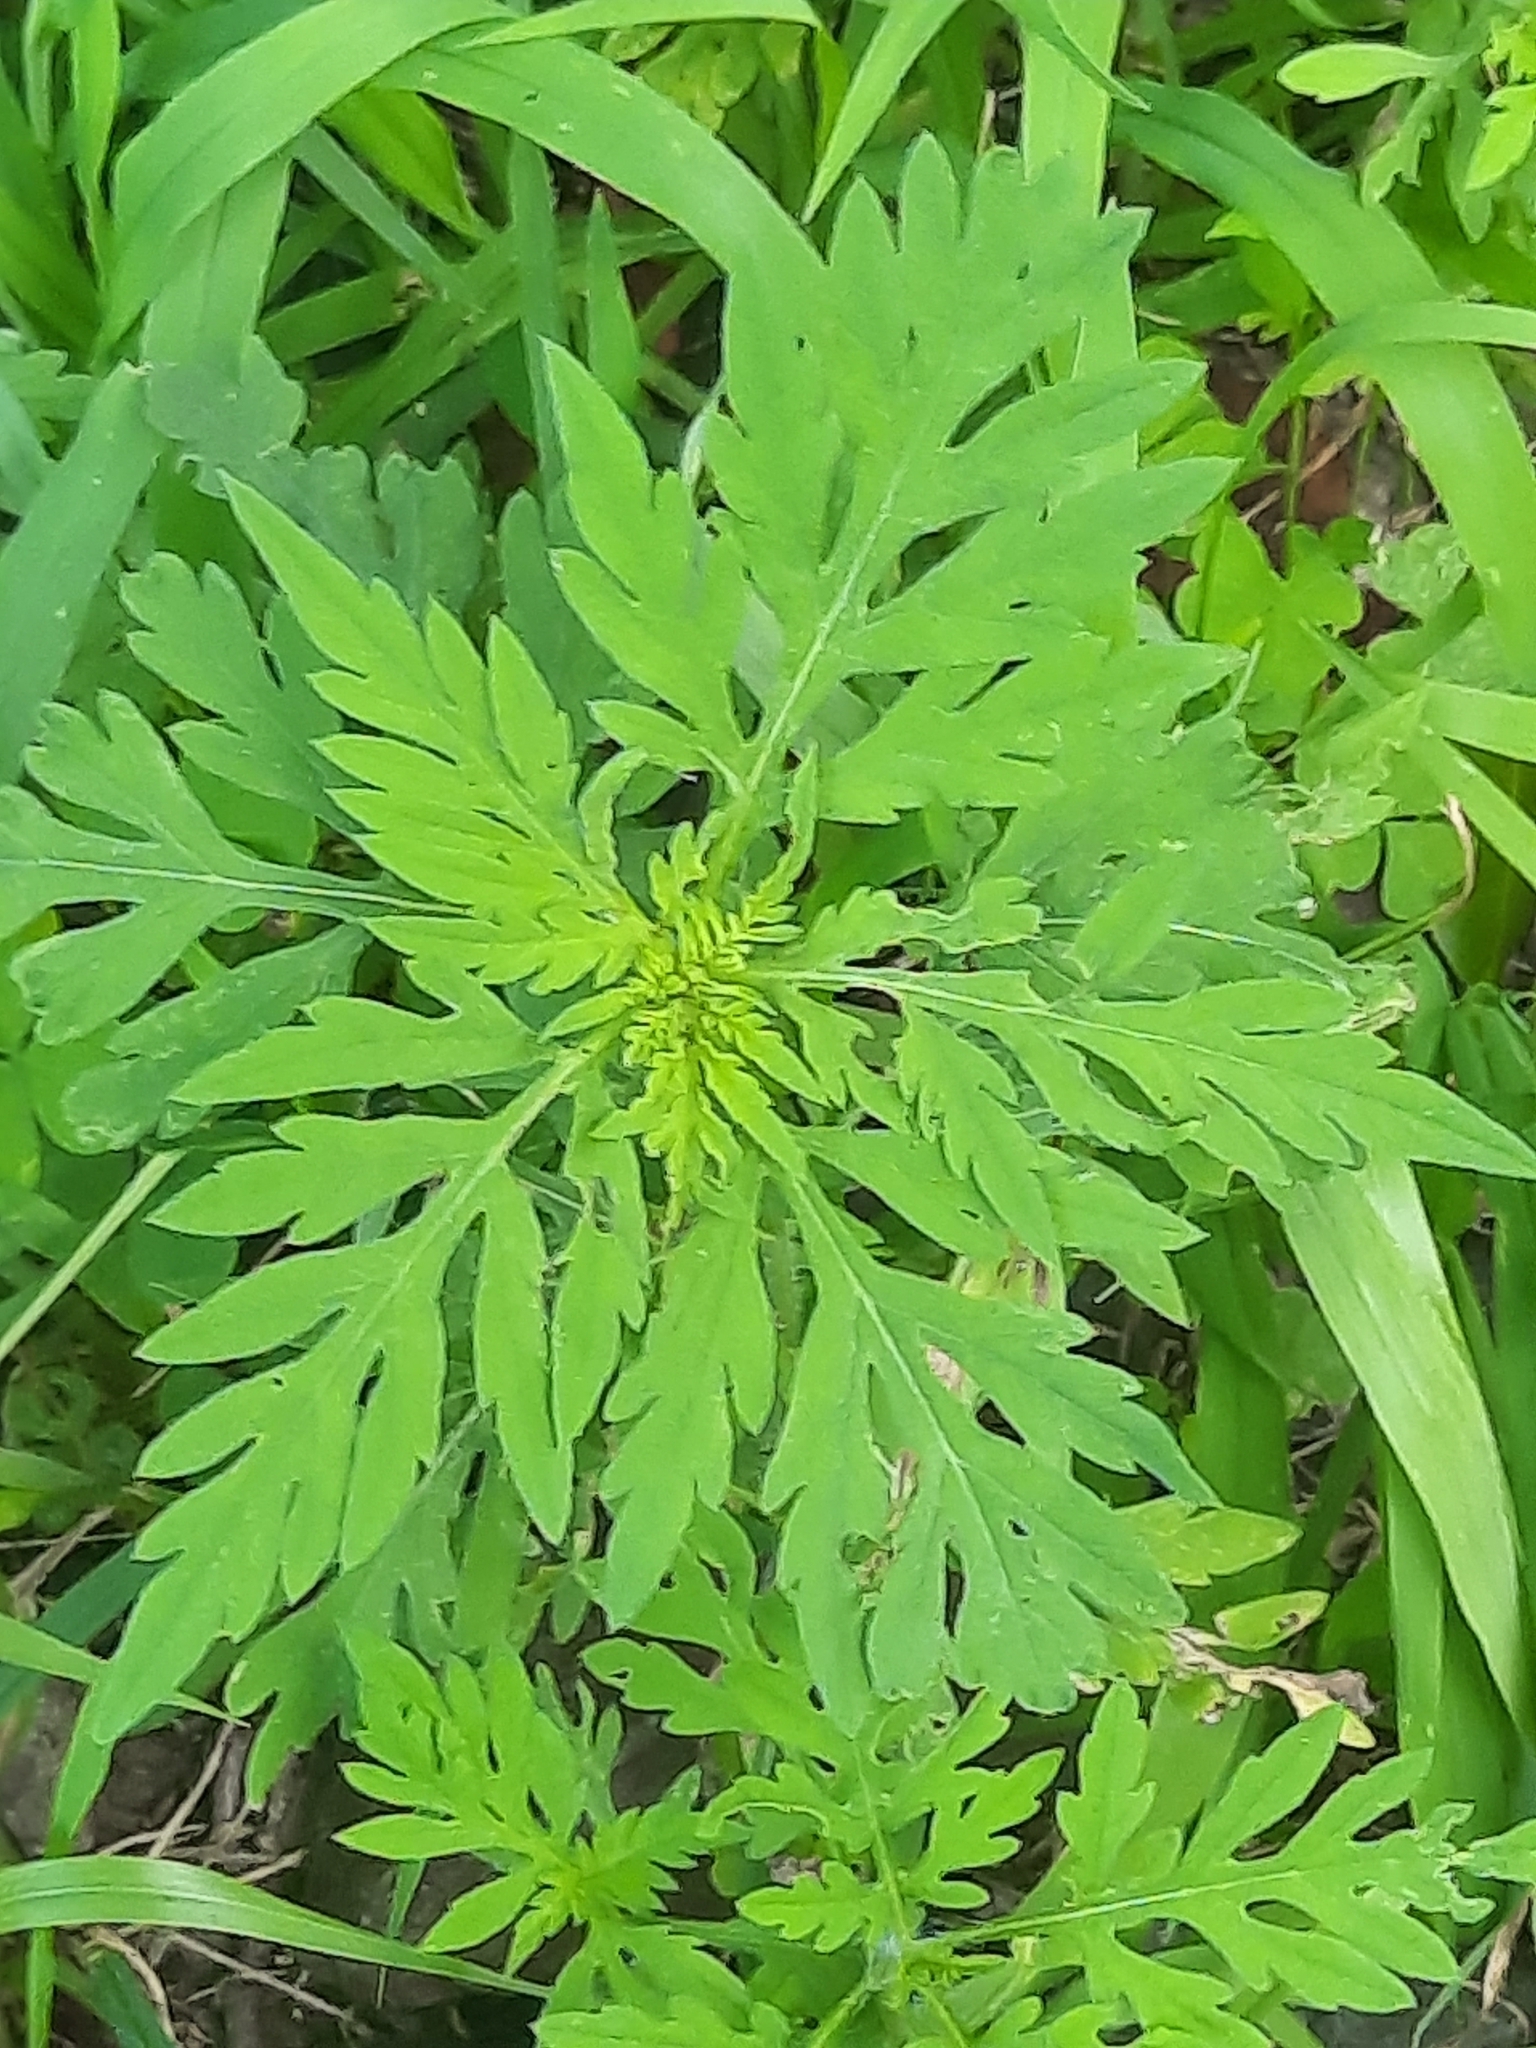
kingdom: Plantae
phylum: Tracheophyta
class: Magnoliopsida
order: Asterales
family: Asteraceae
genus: Ambrosia
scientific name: Ambrosia artemisiifolia
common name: Annual ragweed
